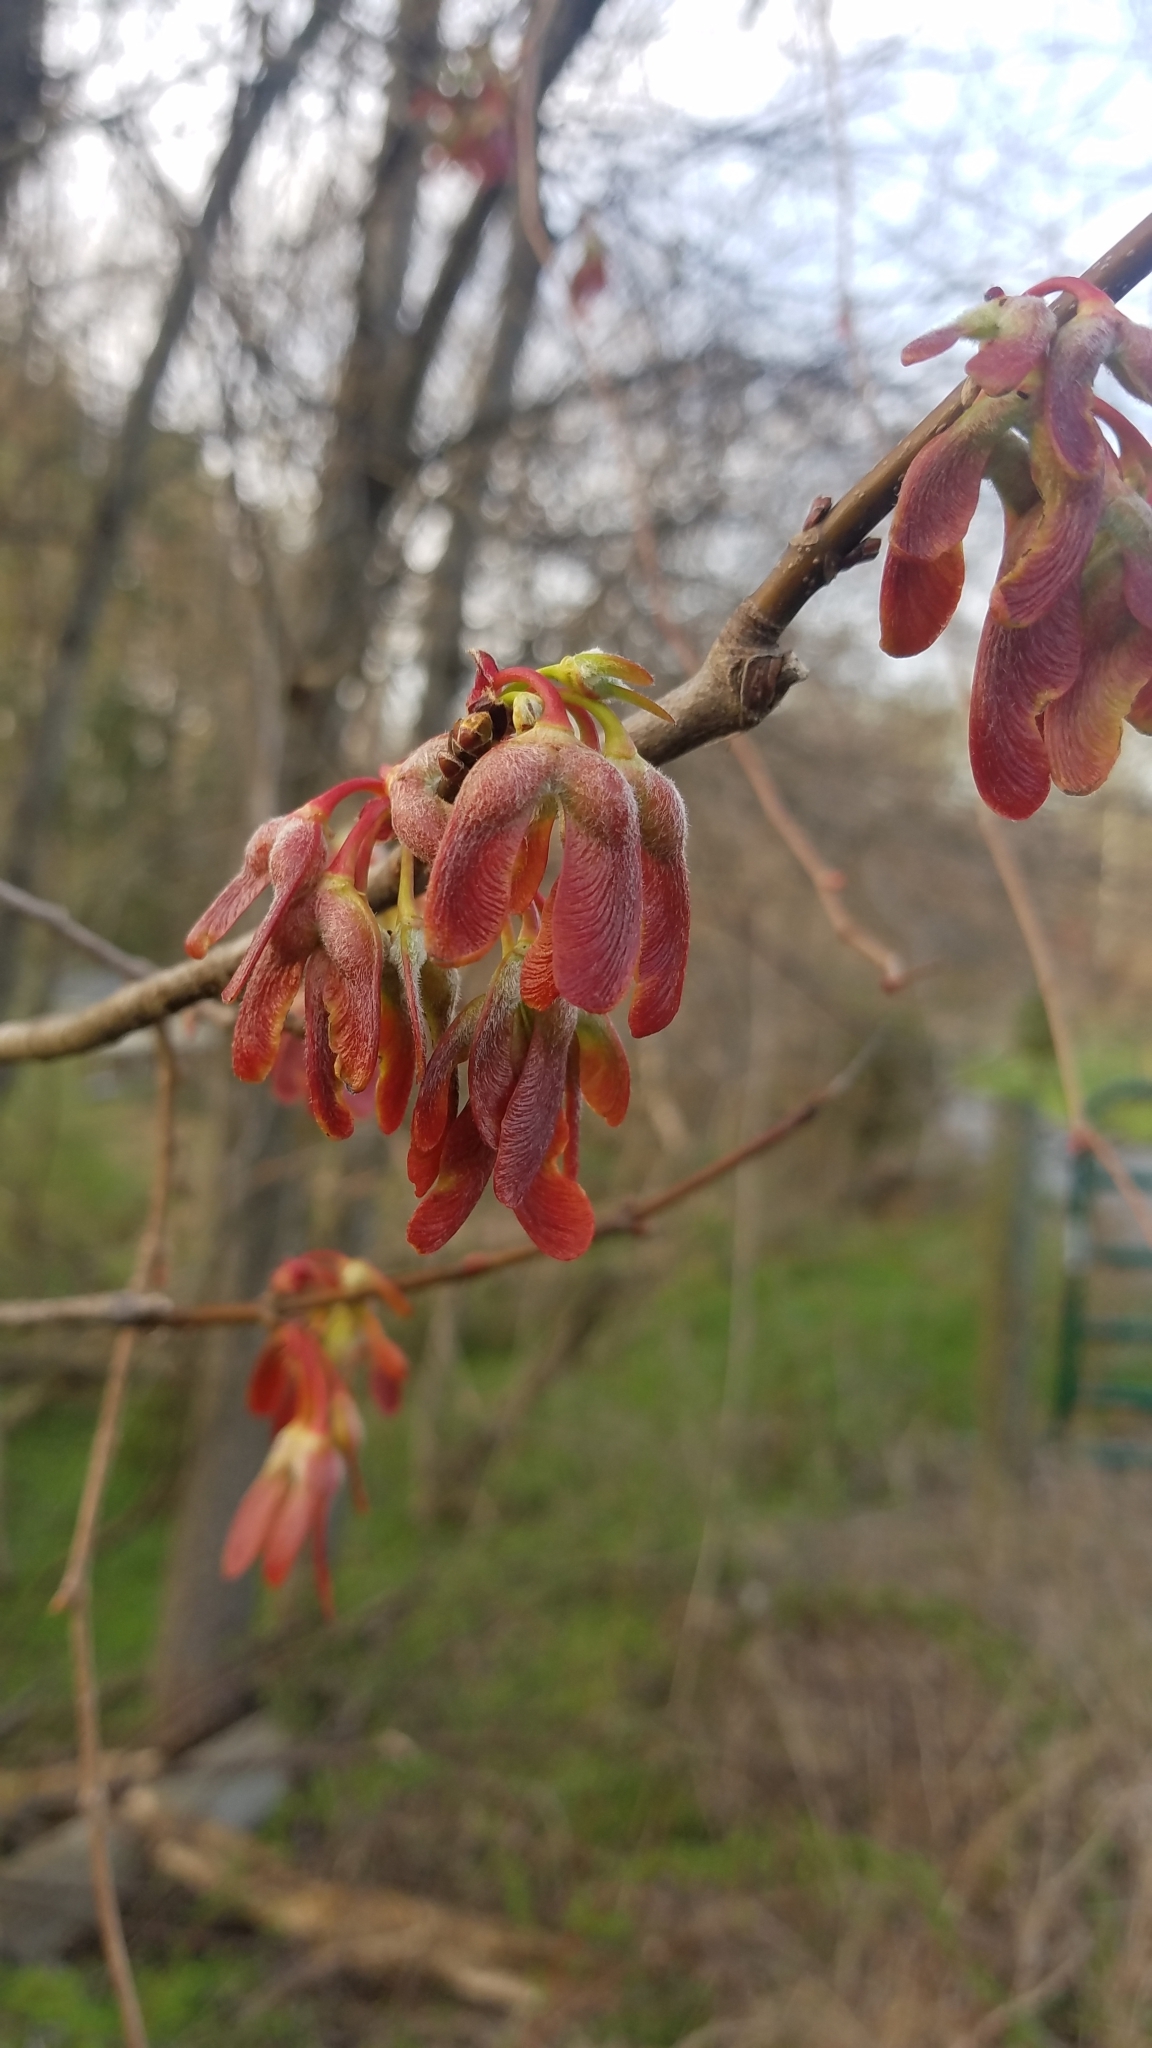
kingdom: Plantae
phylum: Tracheophyta
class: Magnoliopsida
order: Sapindales
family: Sapindaceae
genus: Acer
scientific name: Acer rubrum
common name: Red maple
